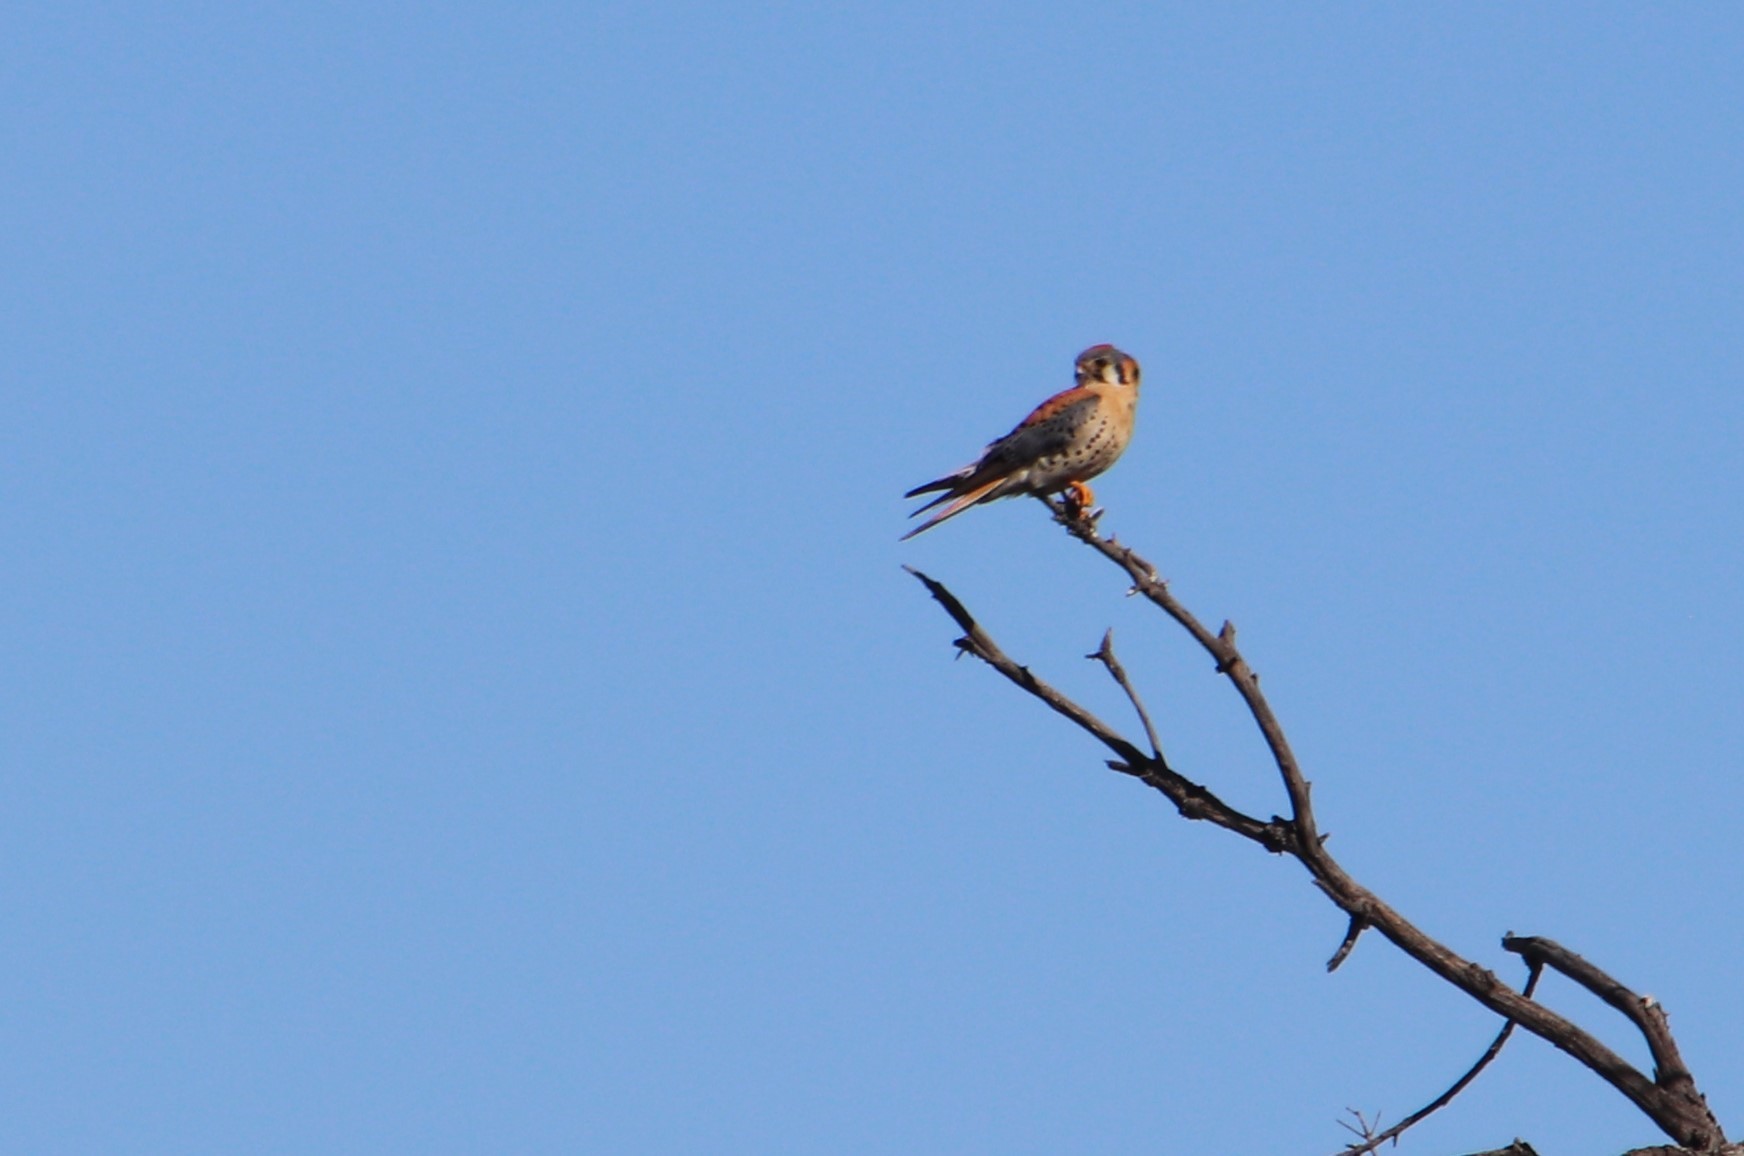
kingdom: Animalia
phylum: Chordata
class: Aves
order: Falconiformes
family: Falconidae
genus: Falco
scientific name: Falco sparverius
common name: American kestrel
